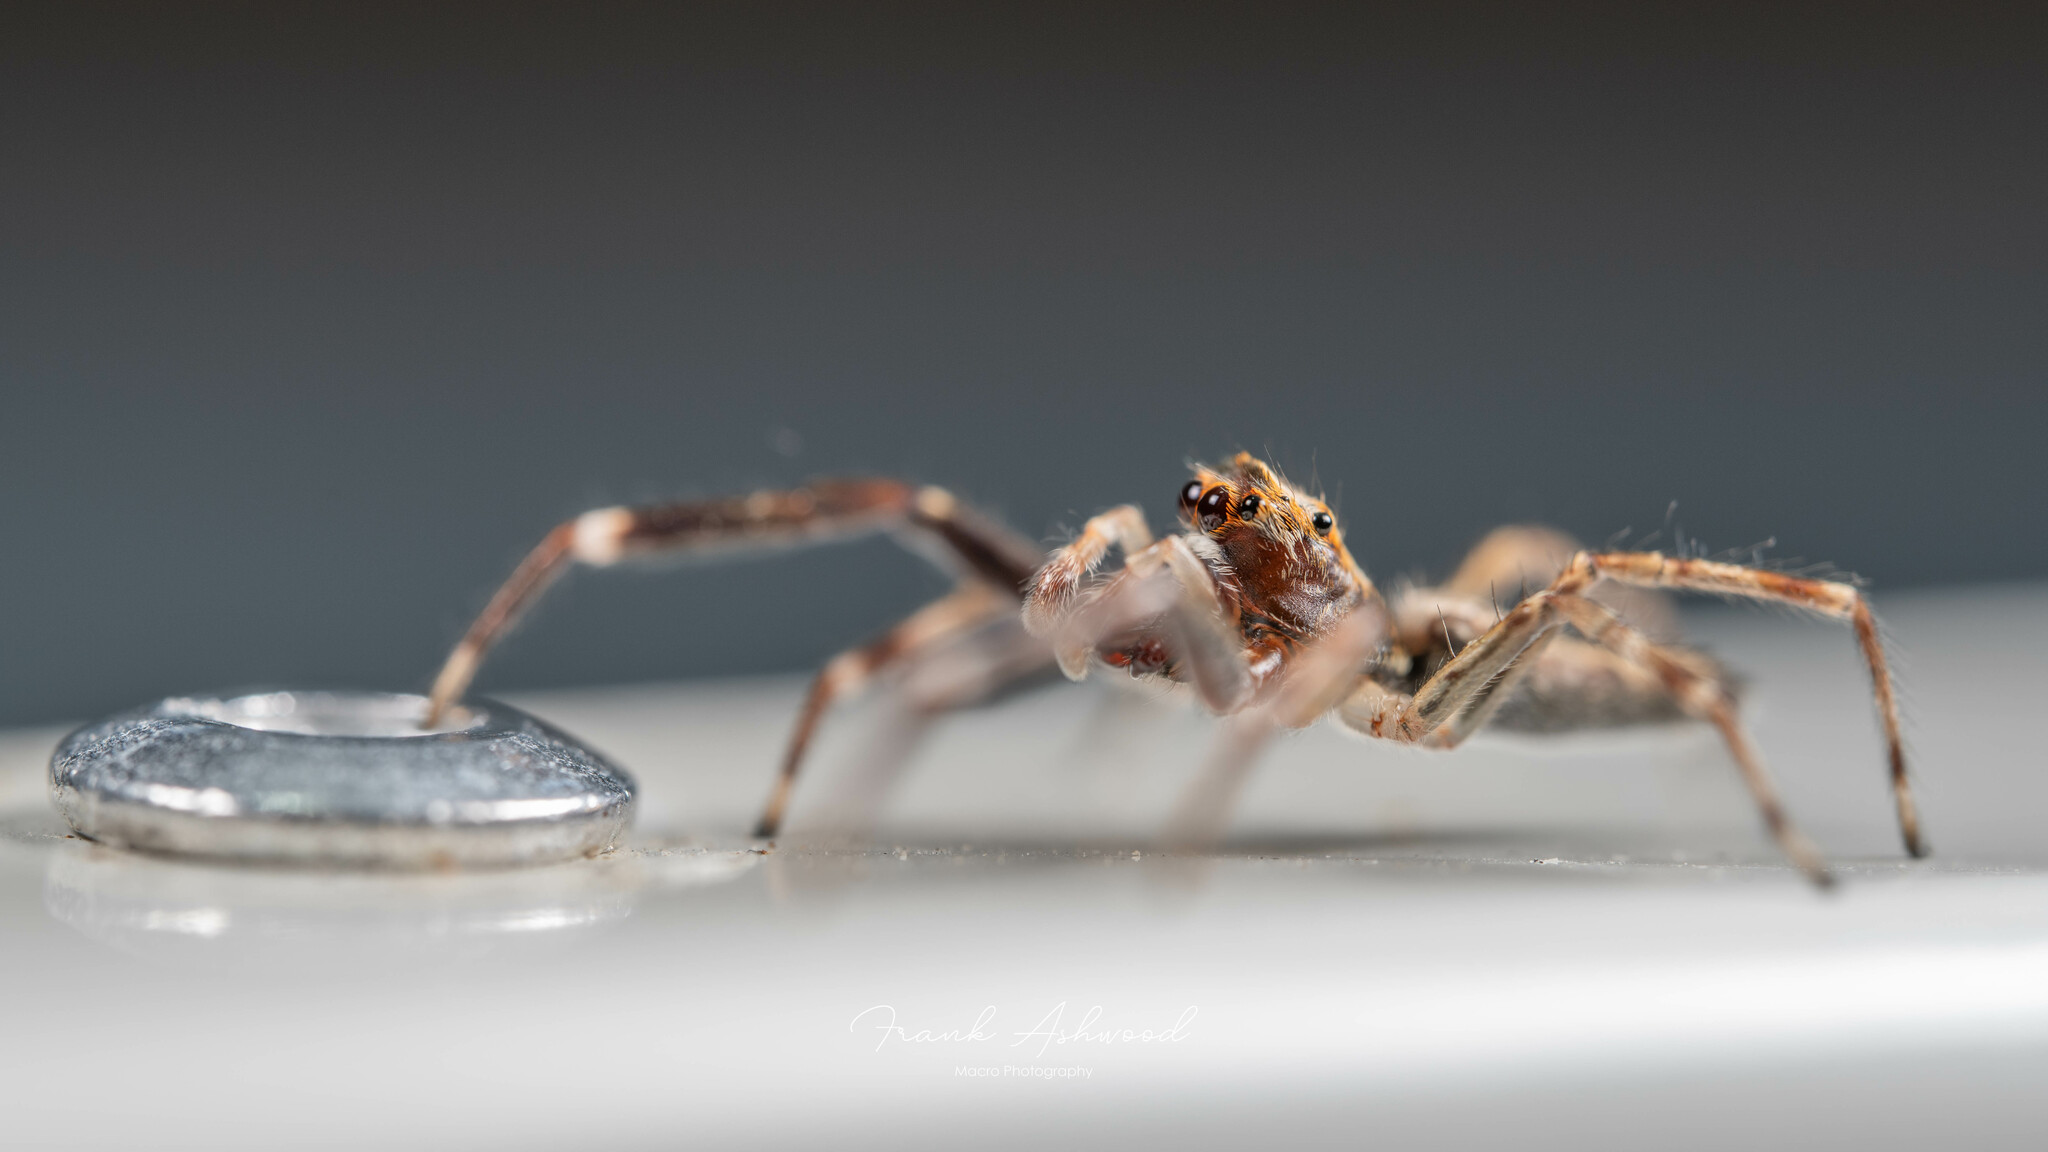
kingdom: Animalia
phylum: Arthropoda
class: Arachnida
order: Araneae
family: Salticidae
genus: Helpis
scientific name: Helpis minitabunda
